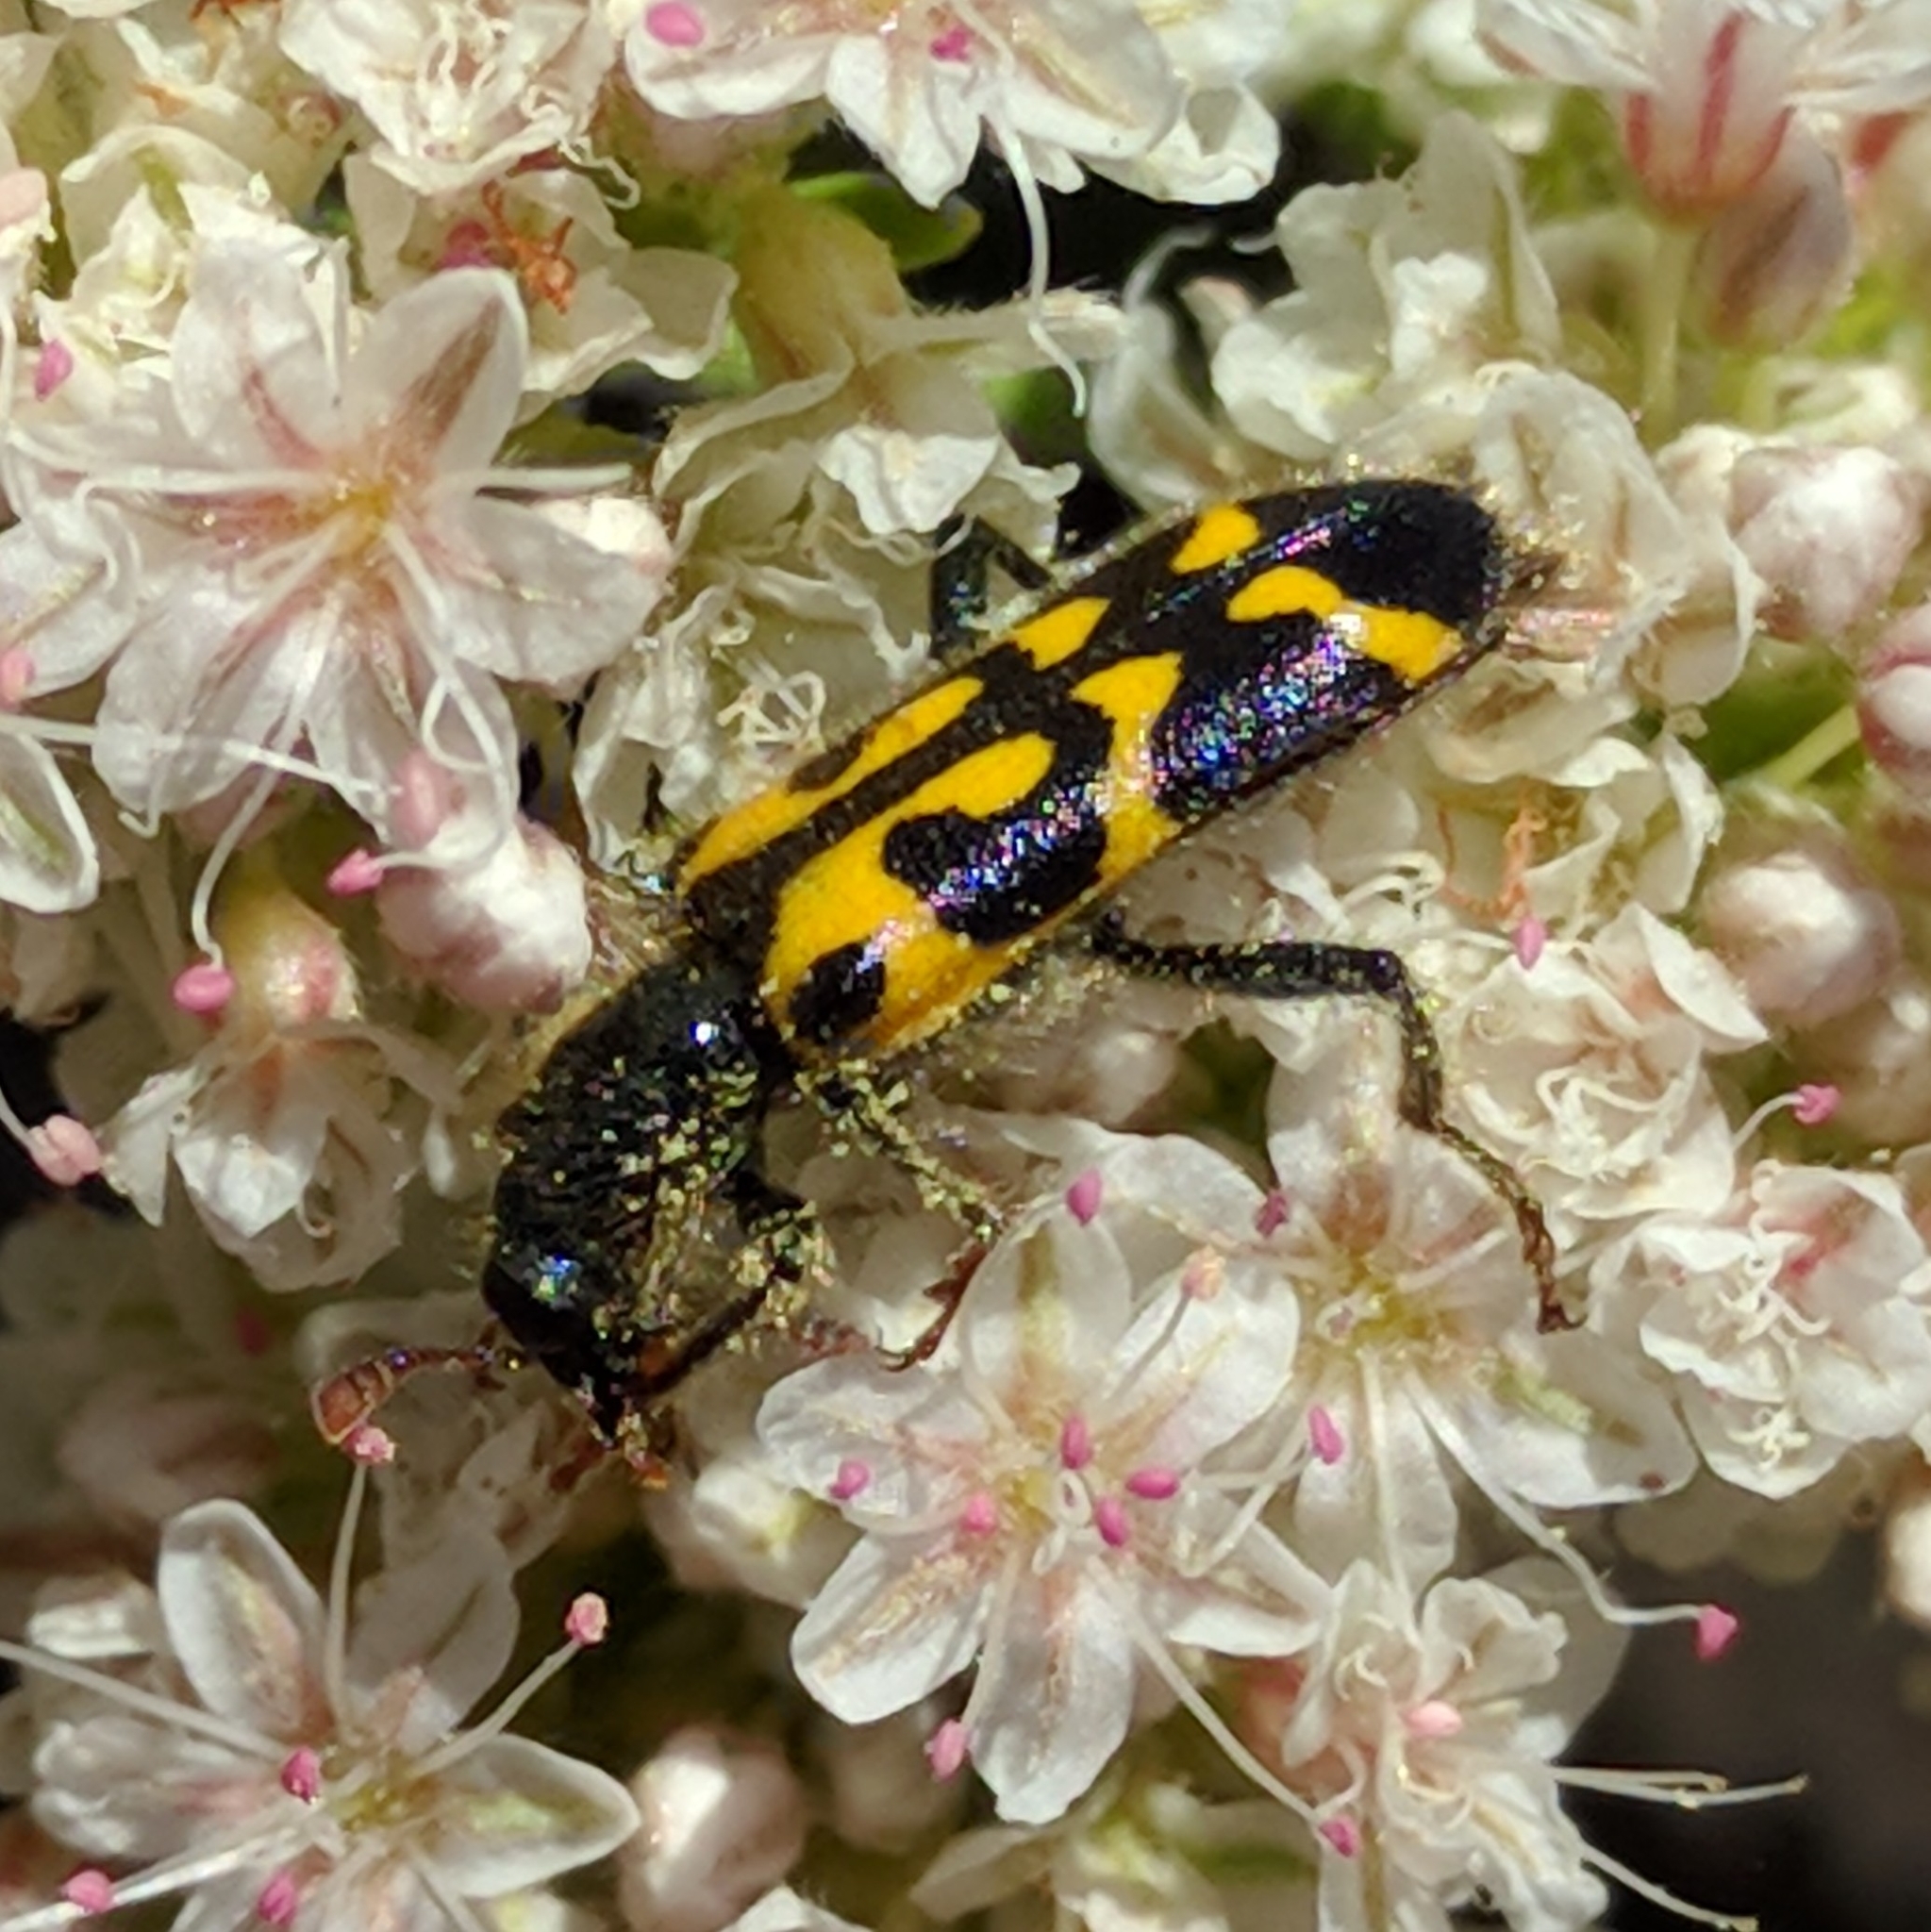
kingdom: Animalia
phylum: Arthropoda
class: Insecta
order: Coleoptera
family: Cleridae
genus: Trichodes
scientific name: Trichodes ornatus
